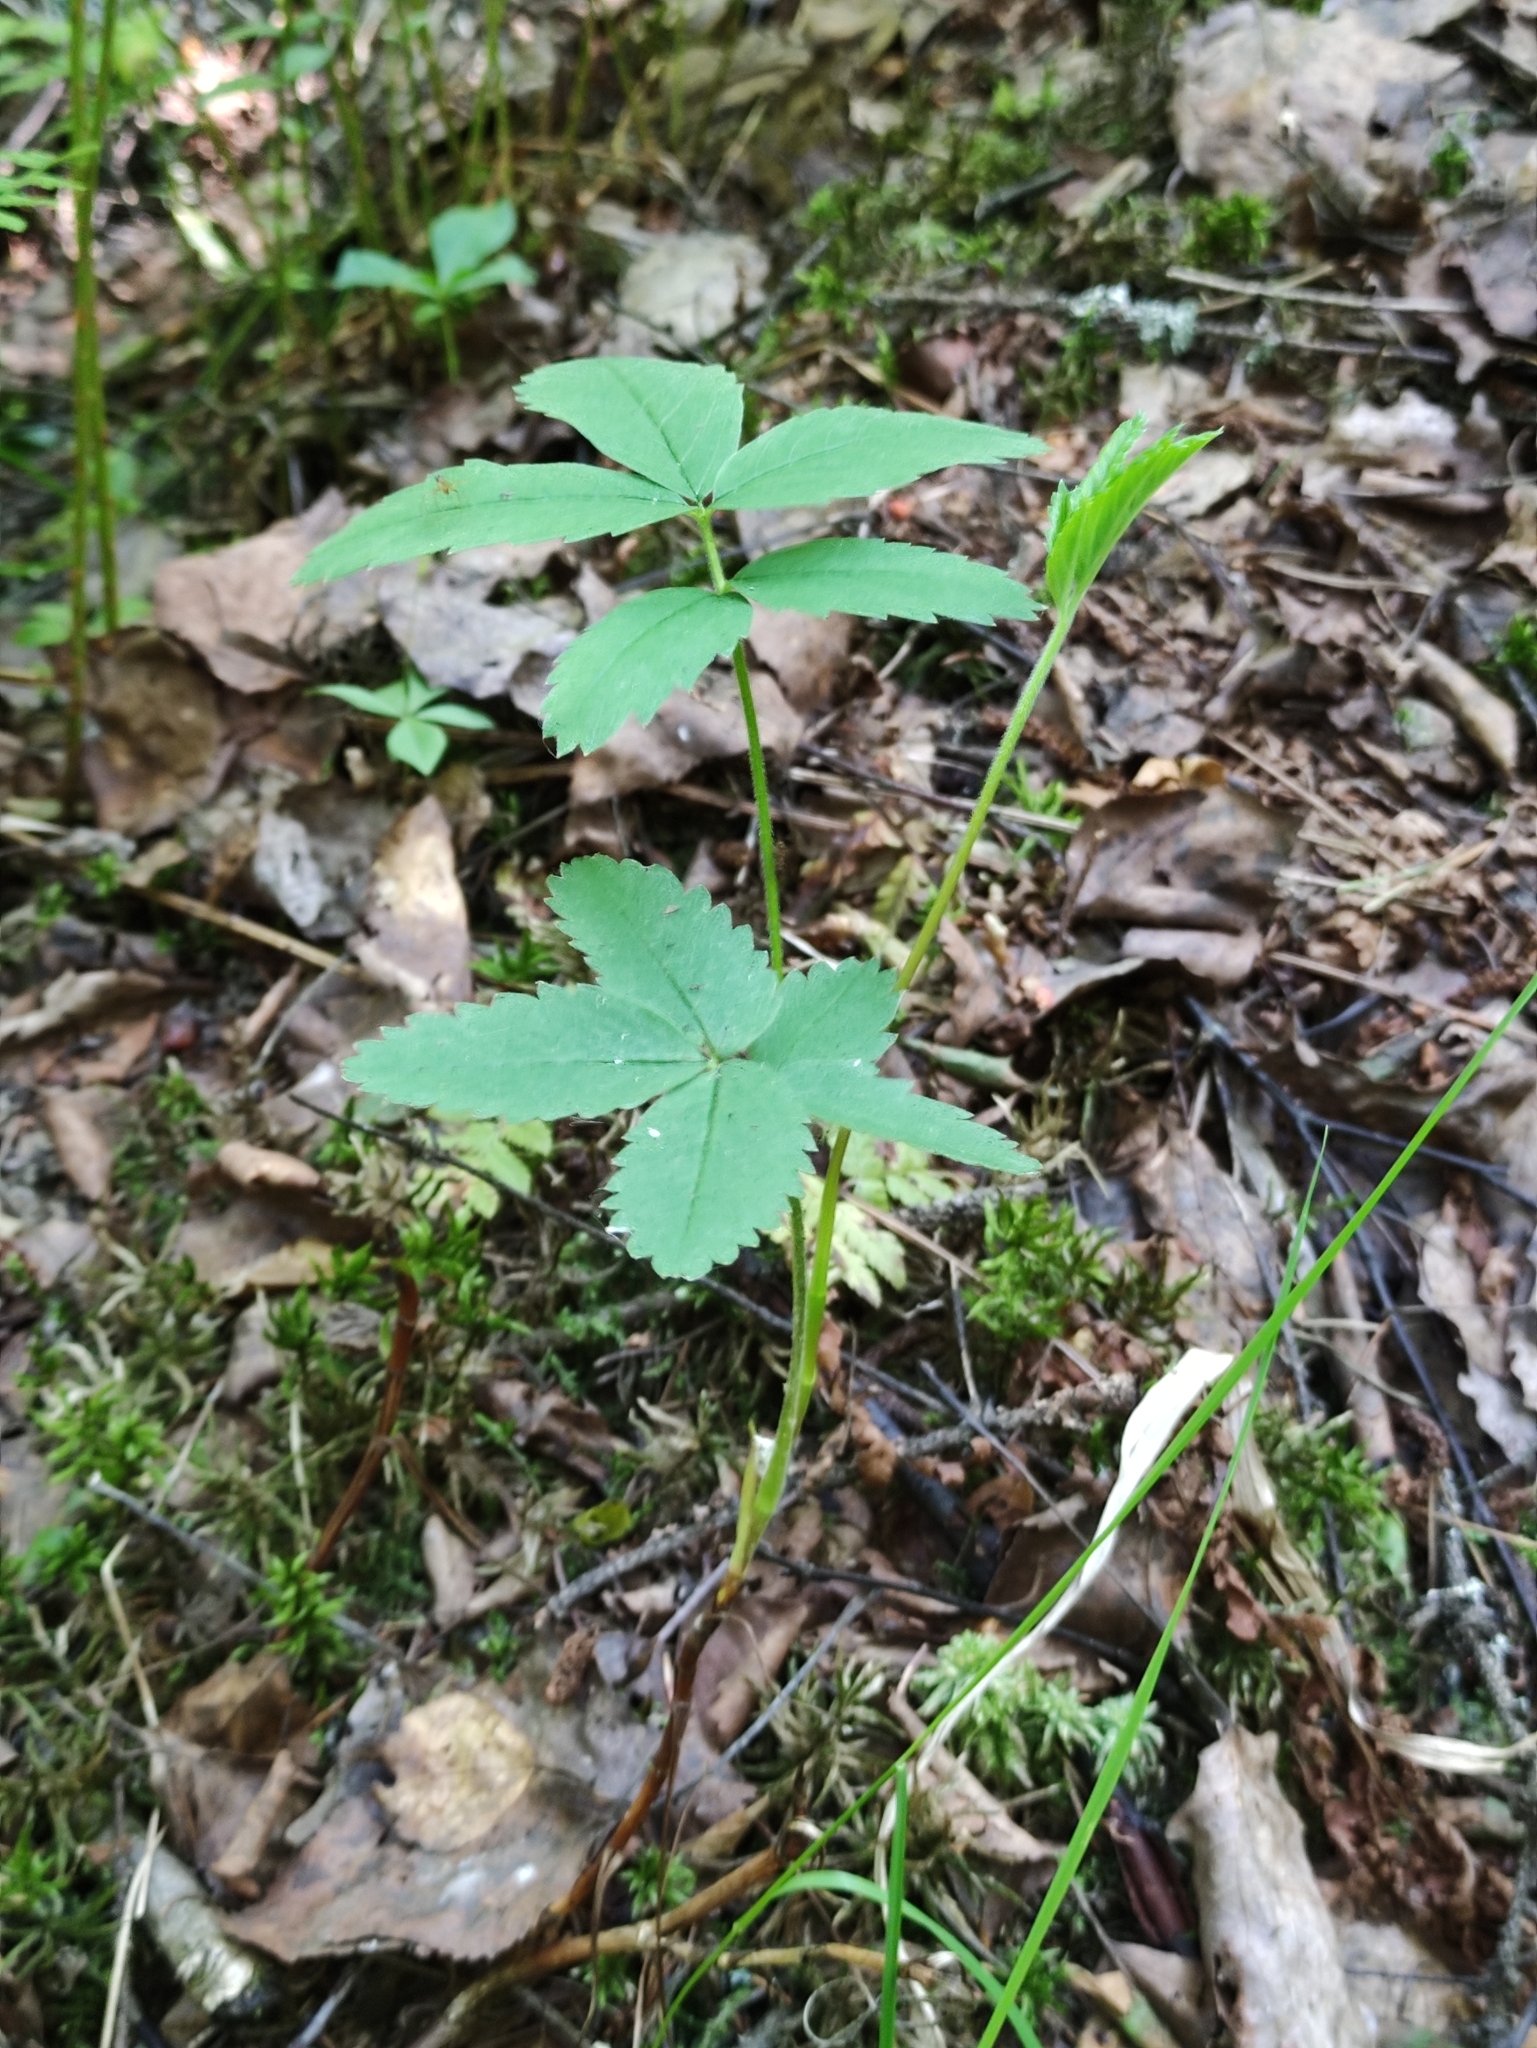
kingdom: Plantae
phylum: Tracheophyta
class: Magnoliopsida
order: Rosales
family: Rosaceae
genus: Comarum
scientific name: Comarum palustre
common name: Marsh cinquefoil
